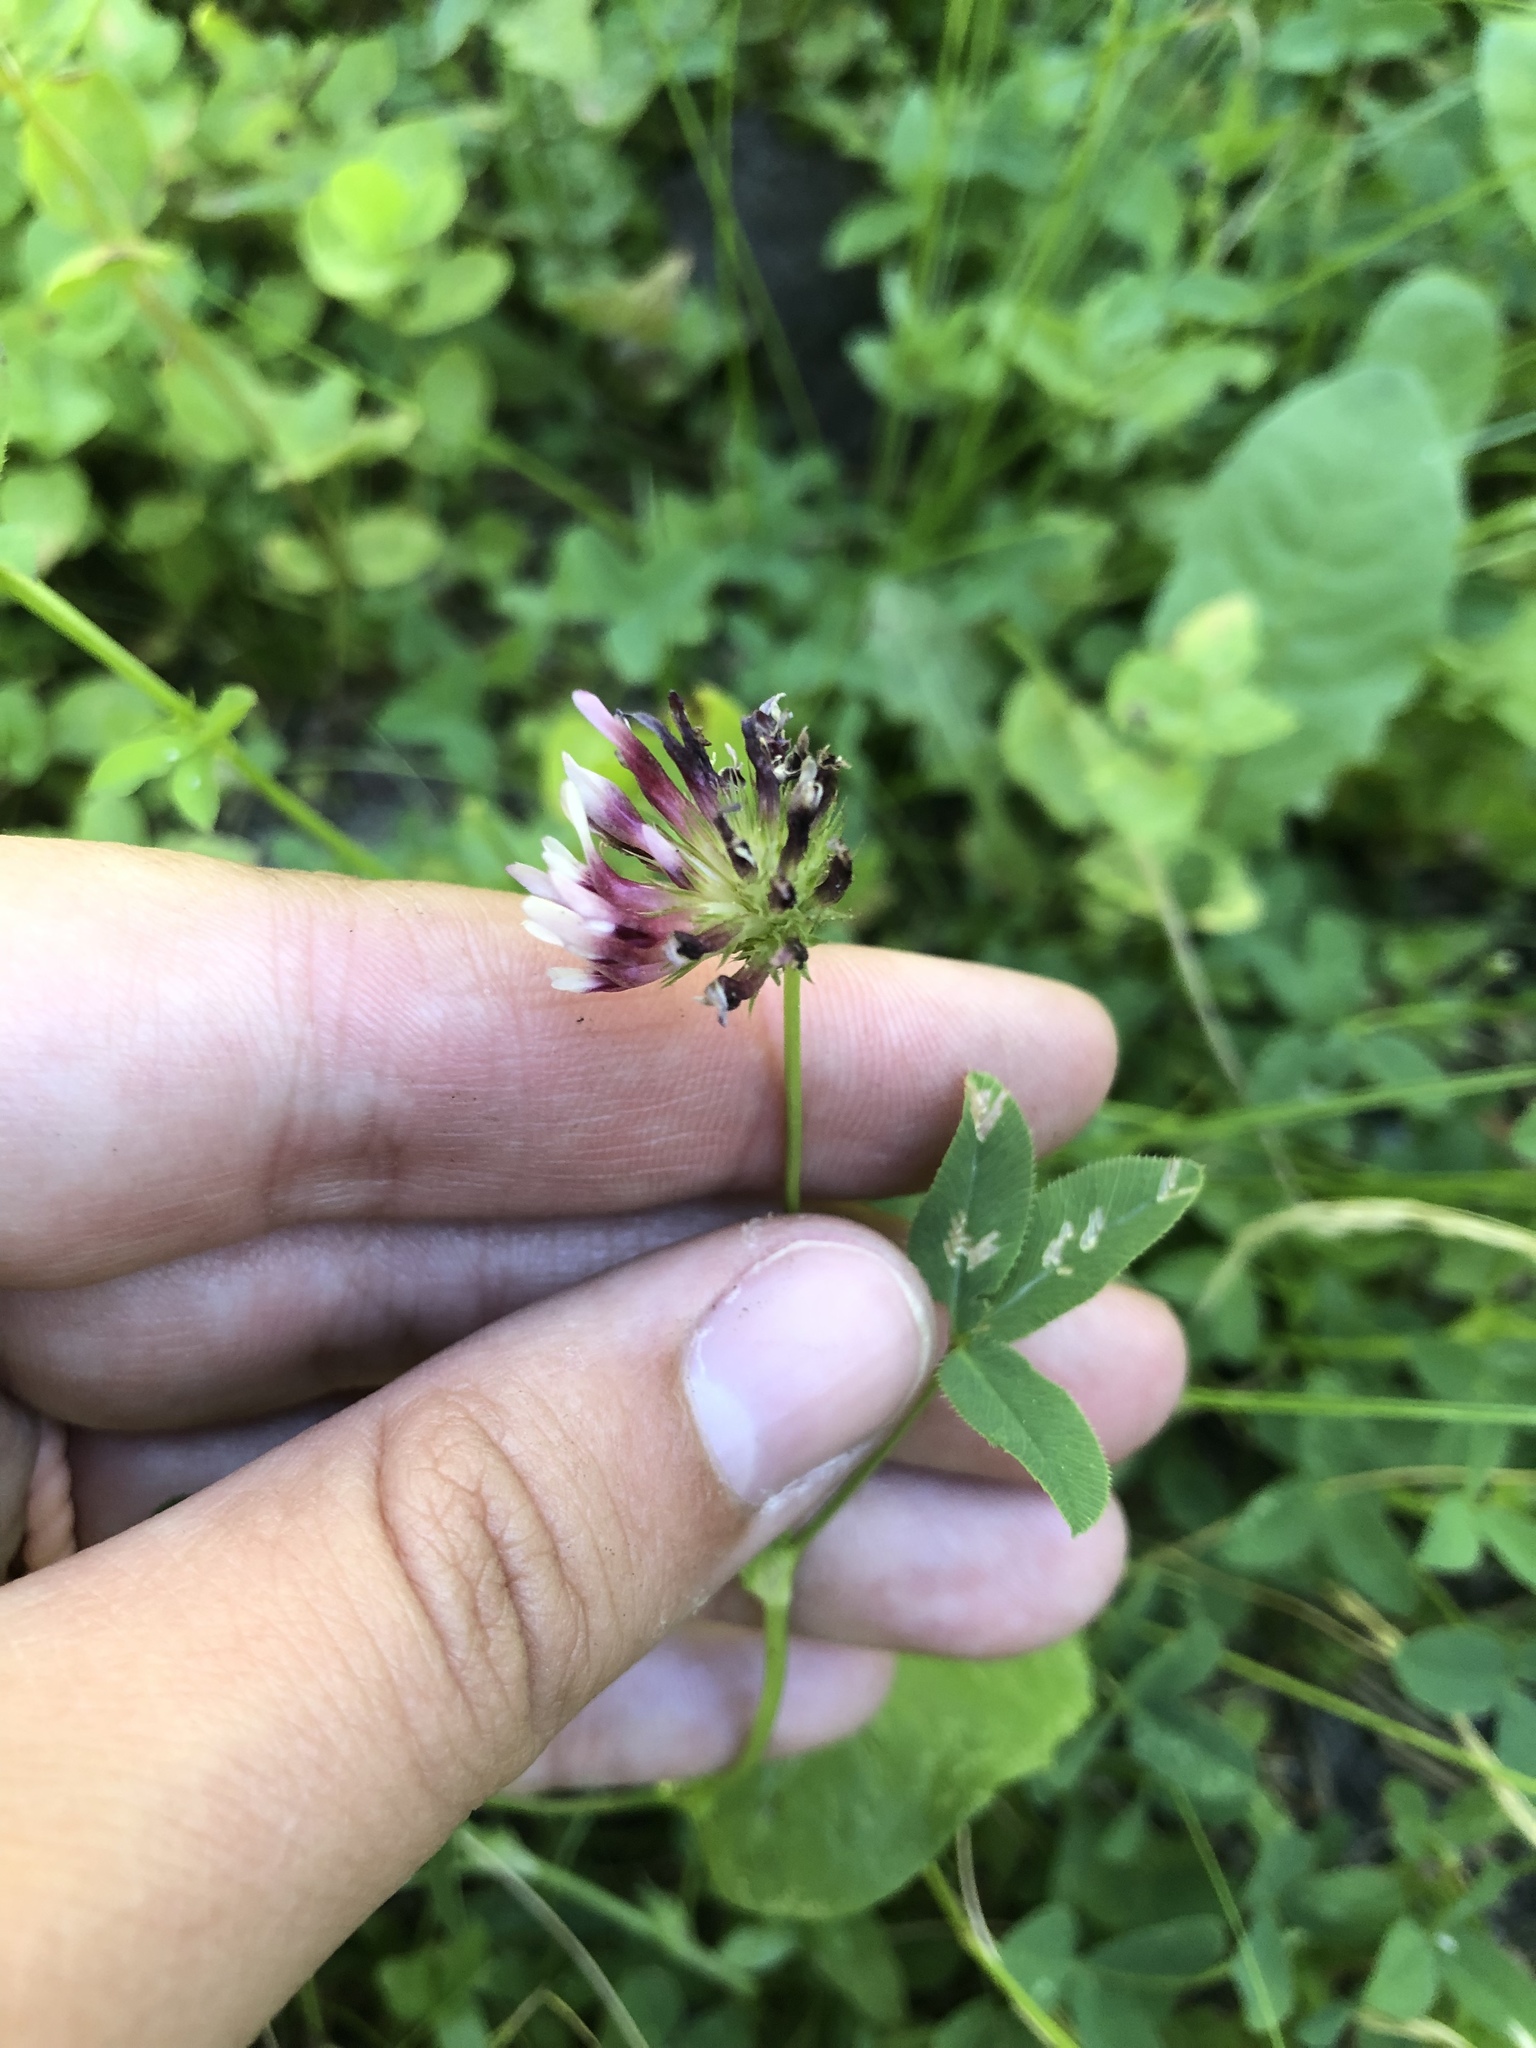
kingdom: Plantae
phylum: Tracheophyta
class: Magnoliopsida
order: Fabales
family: Fabaceae
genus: Trifolium
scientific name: Trifolium variegatum
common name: Whitetip clover
